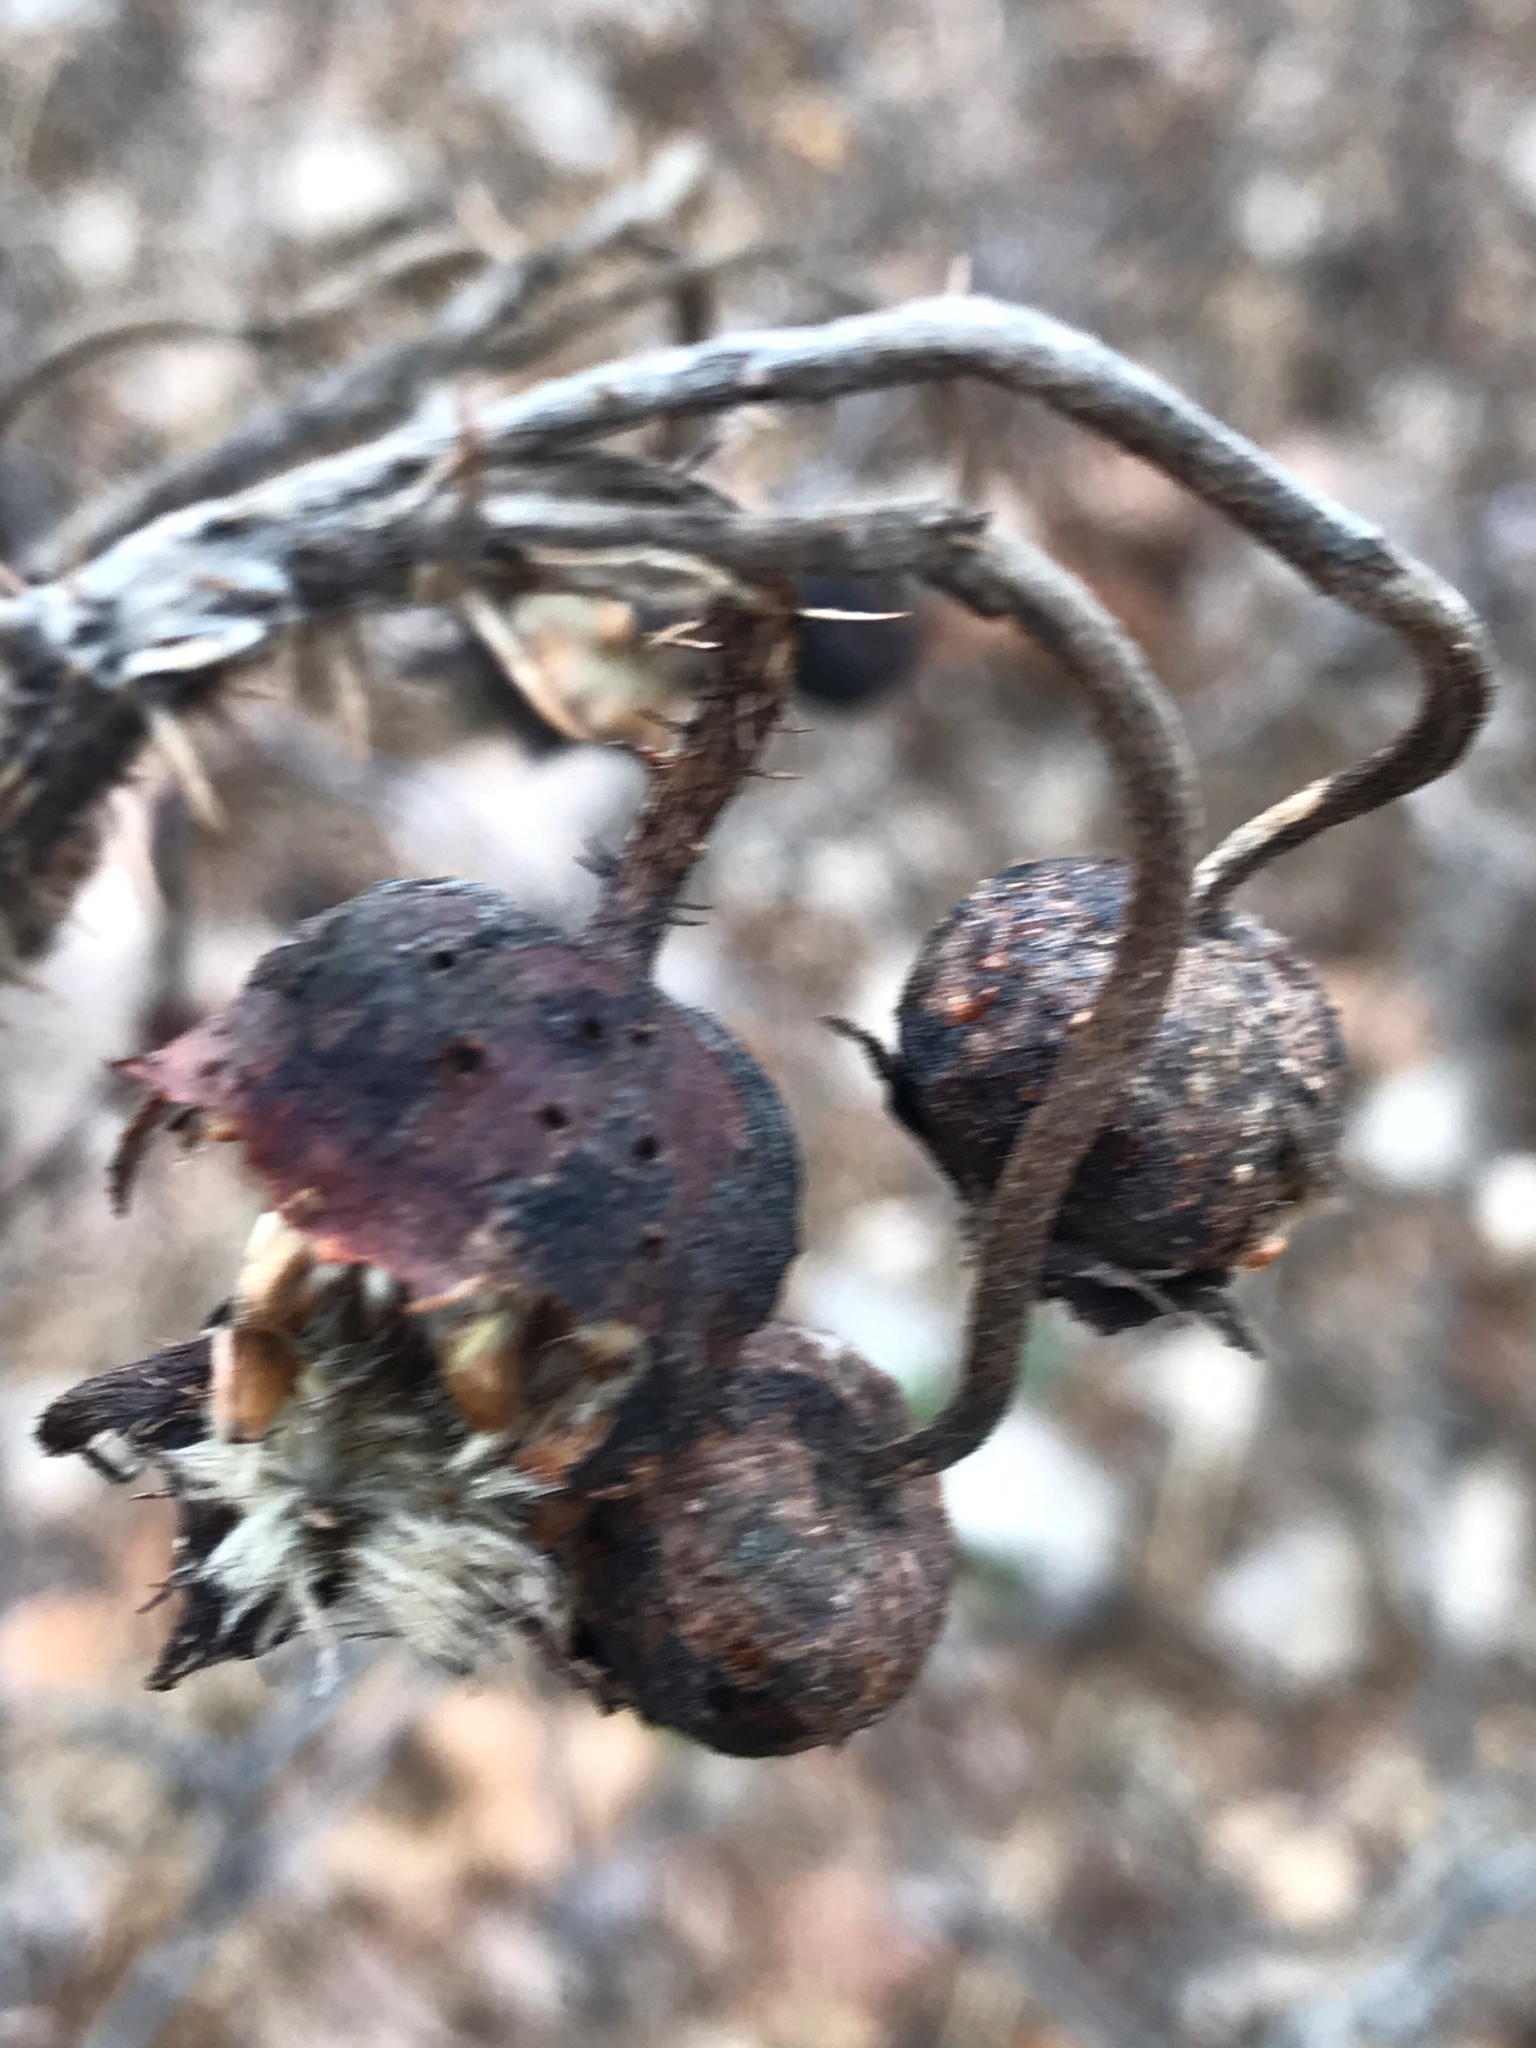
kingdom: Plantae
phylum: Tracheophyta
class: Magnoliopsida
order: Rosales
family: Rosaceae
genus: Rosa
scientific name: Rosa rugosa
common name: Japanese rose
